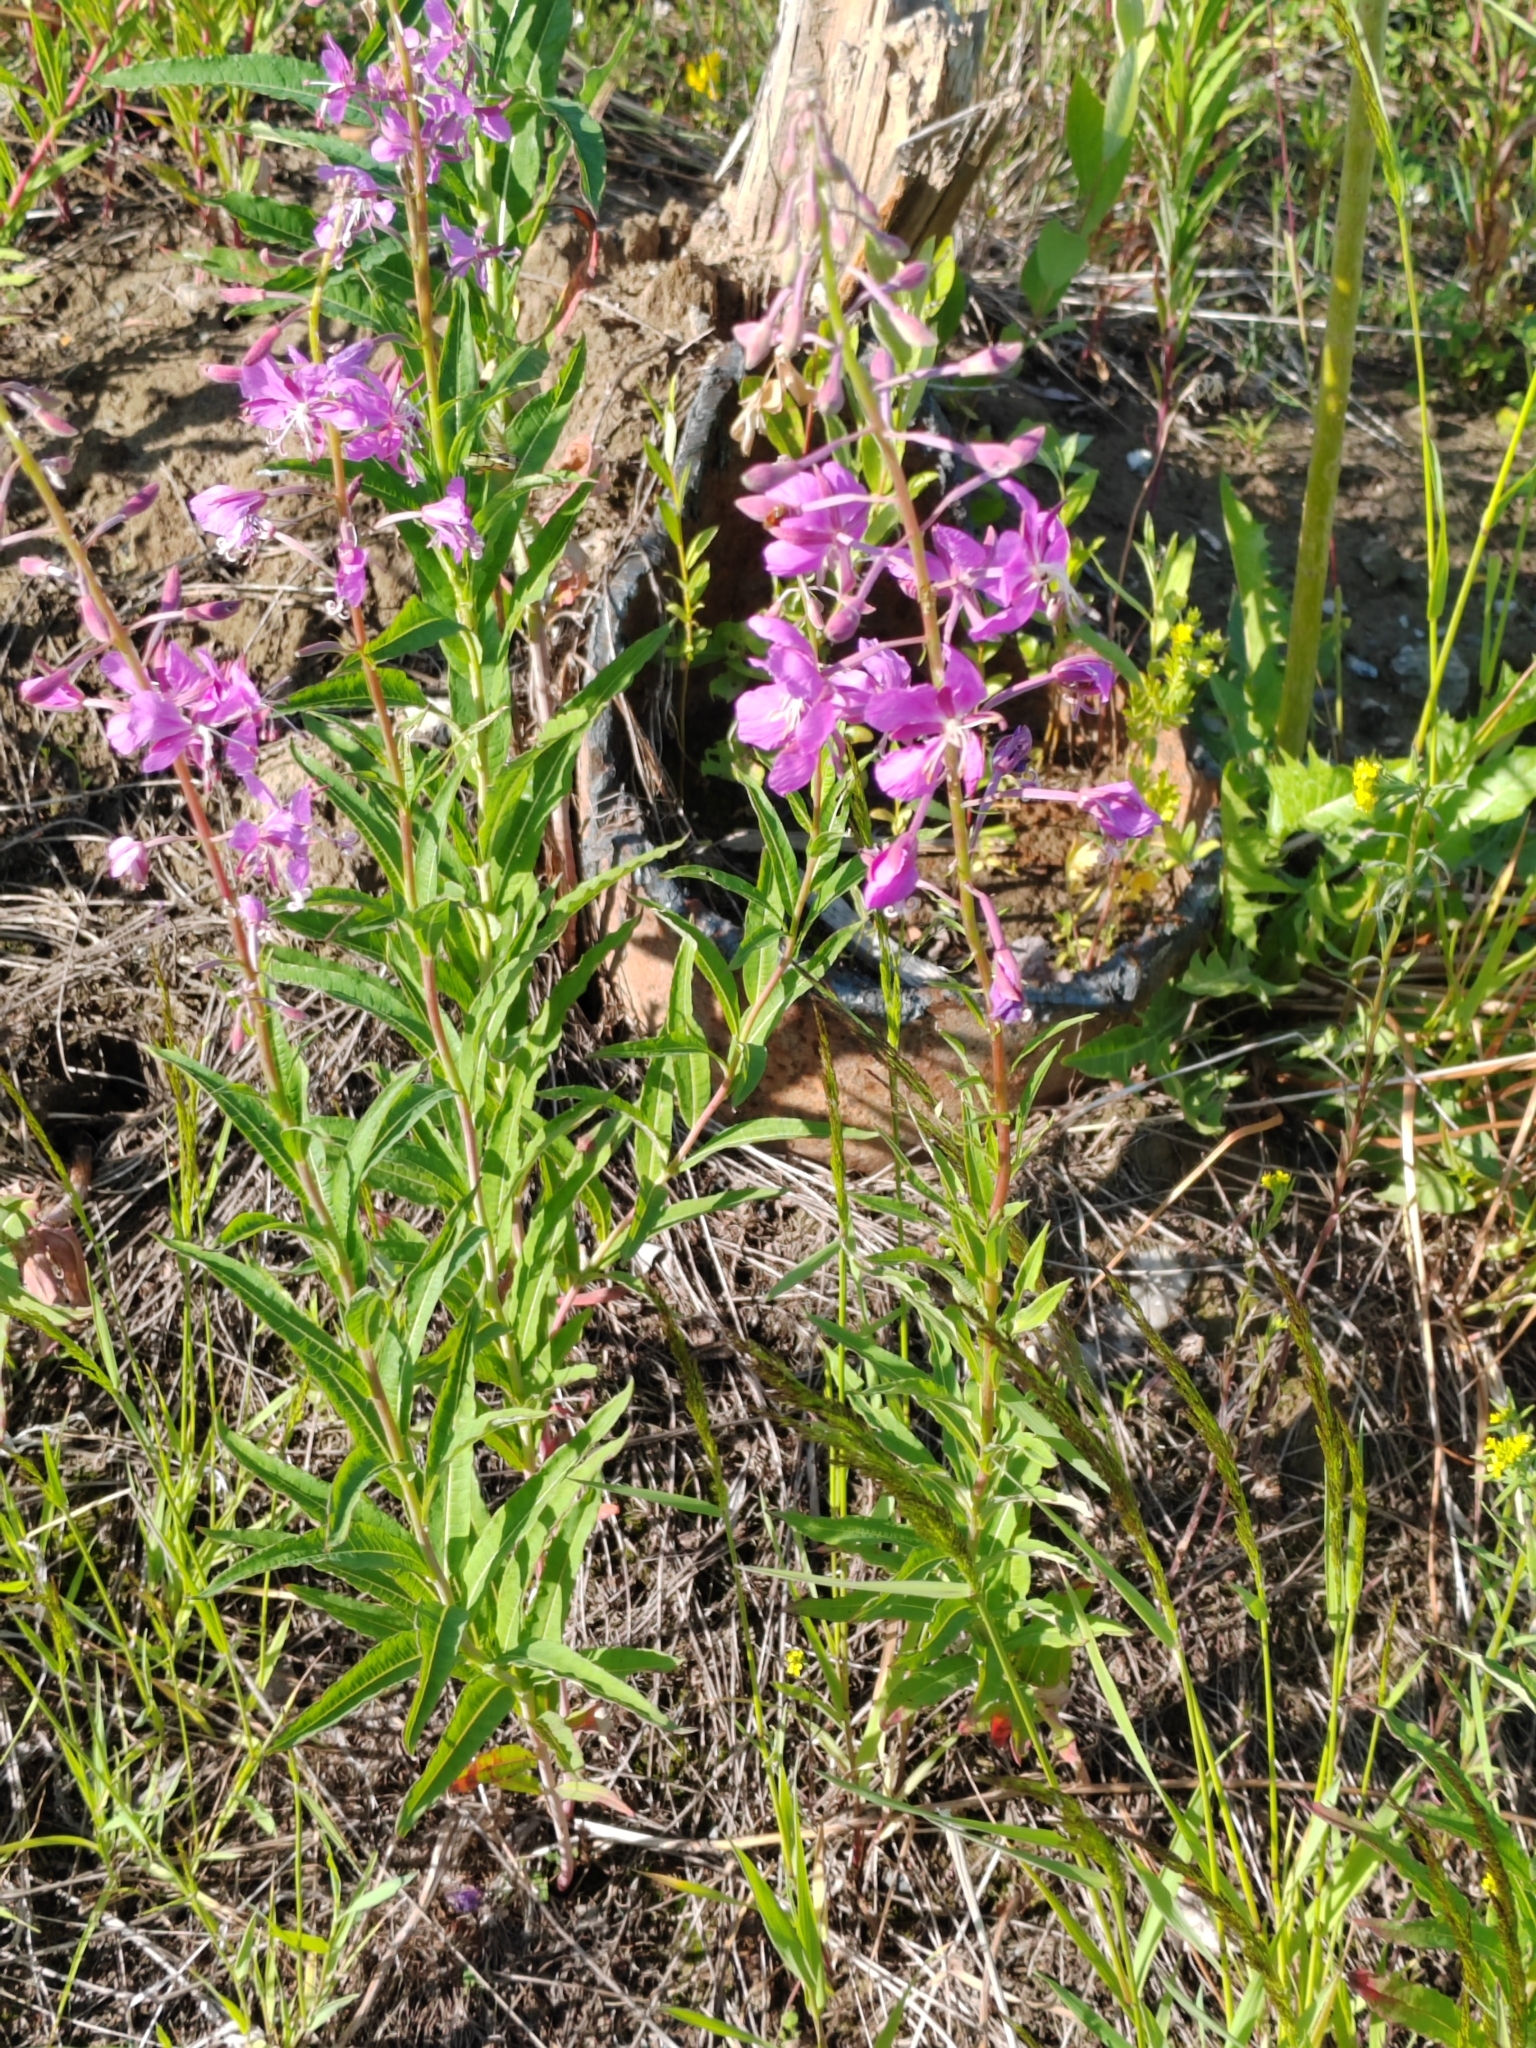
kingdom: Plantae
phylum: Tracheophyta
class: Magnoliopsida
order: Myrtales
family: Onagraceae
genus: Chamaenerion
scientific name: Chamaenerion angustifolium
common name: Fireweed
